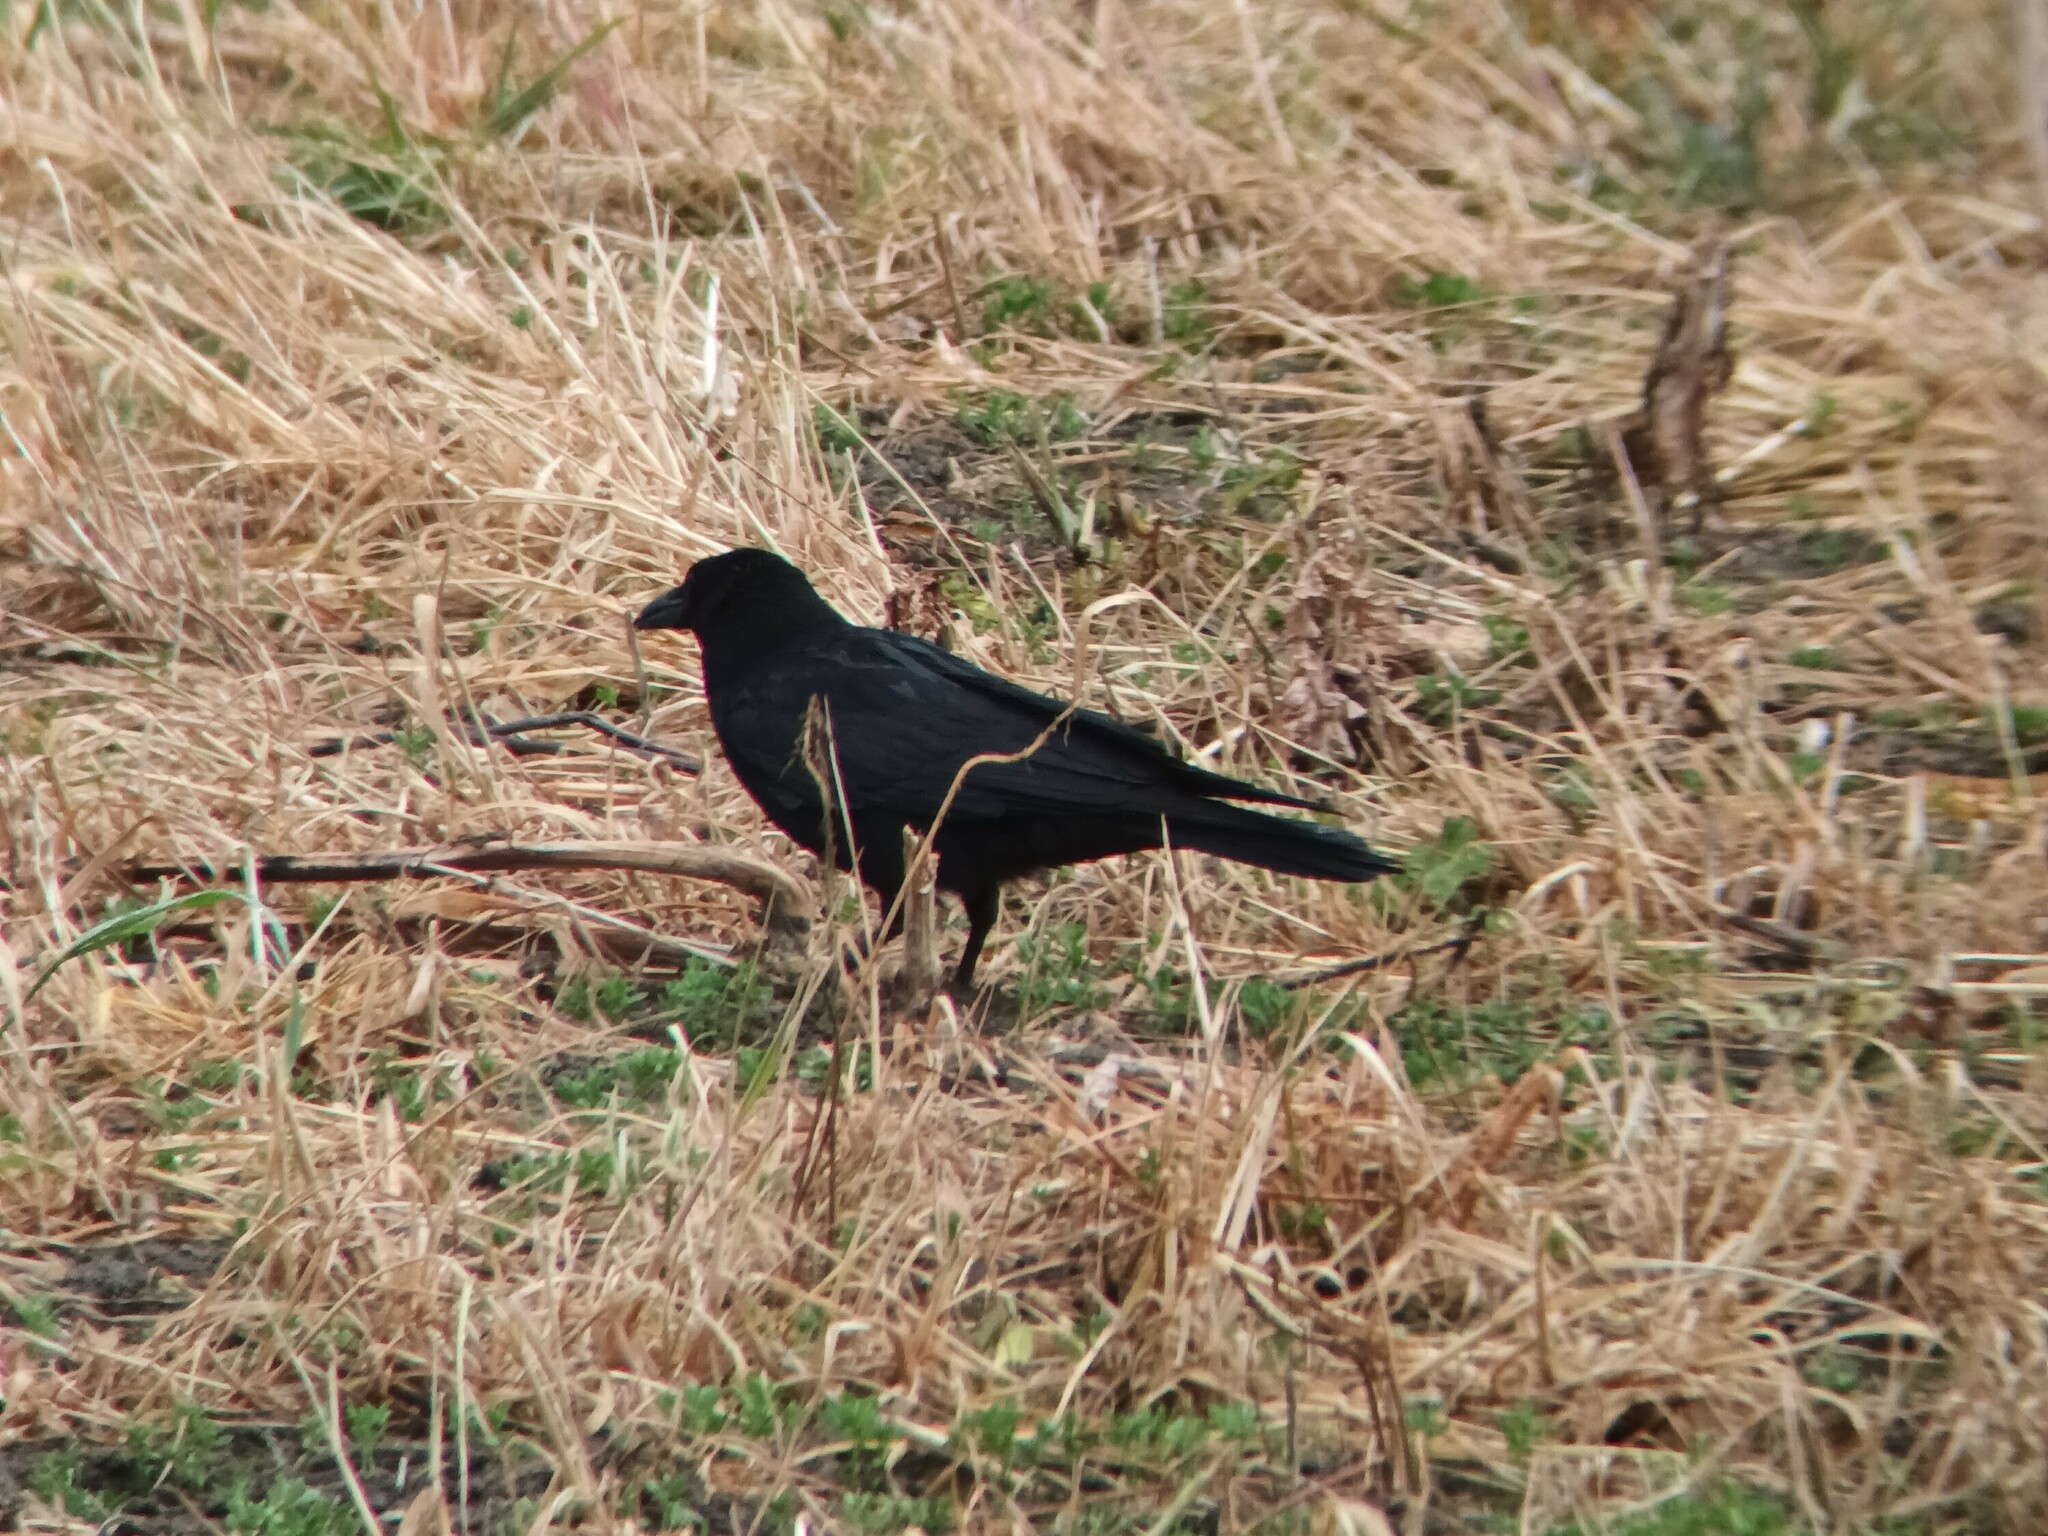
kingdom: Animalia
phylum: Chordata
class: Aves
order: Passeriformes
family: Corvidae
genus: Corvus
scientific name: Corvus corone
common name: Carrion crow
